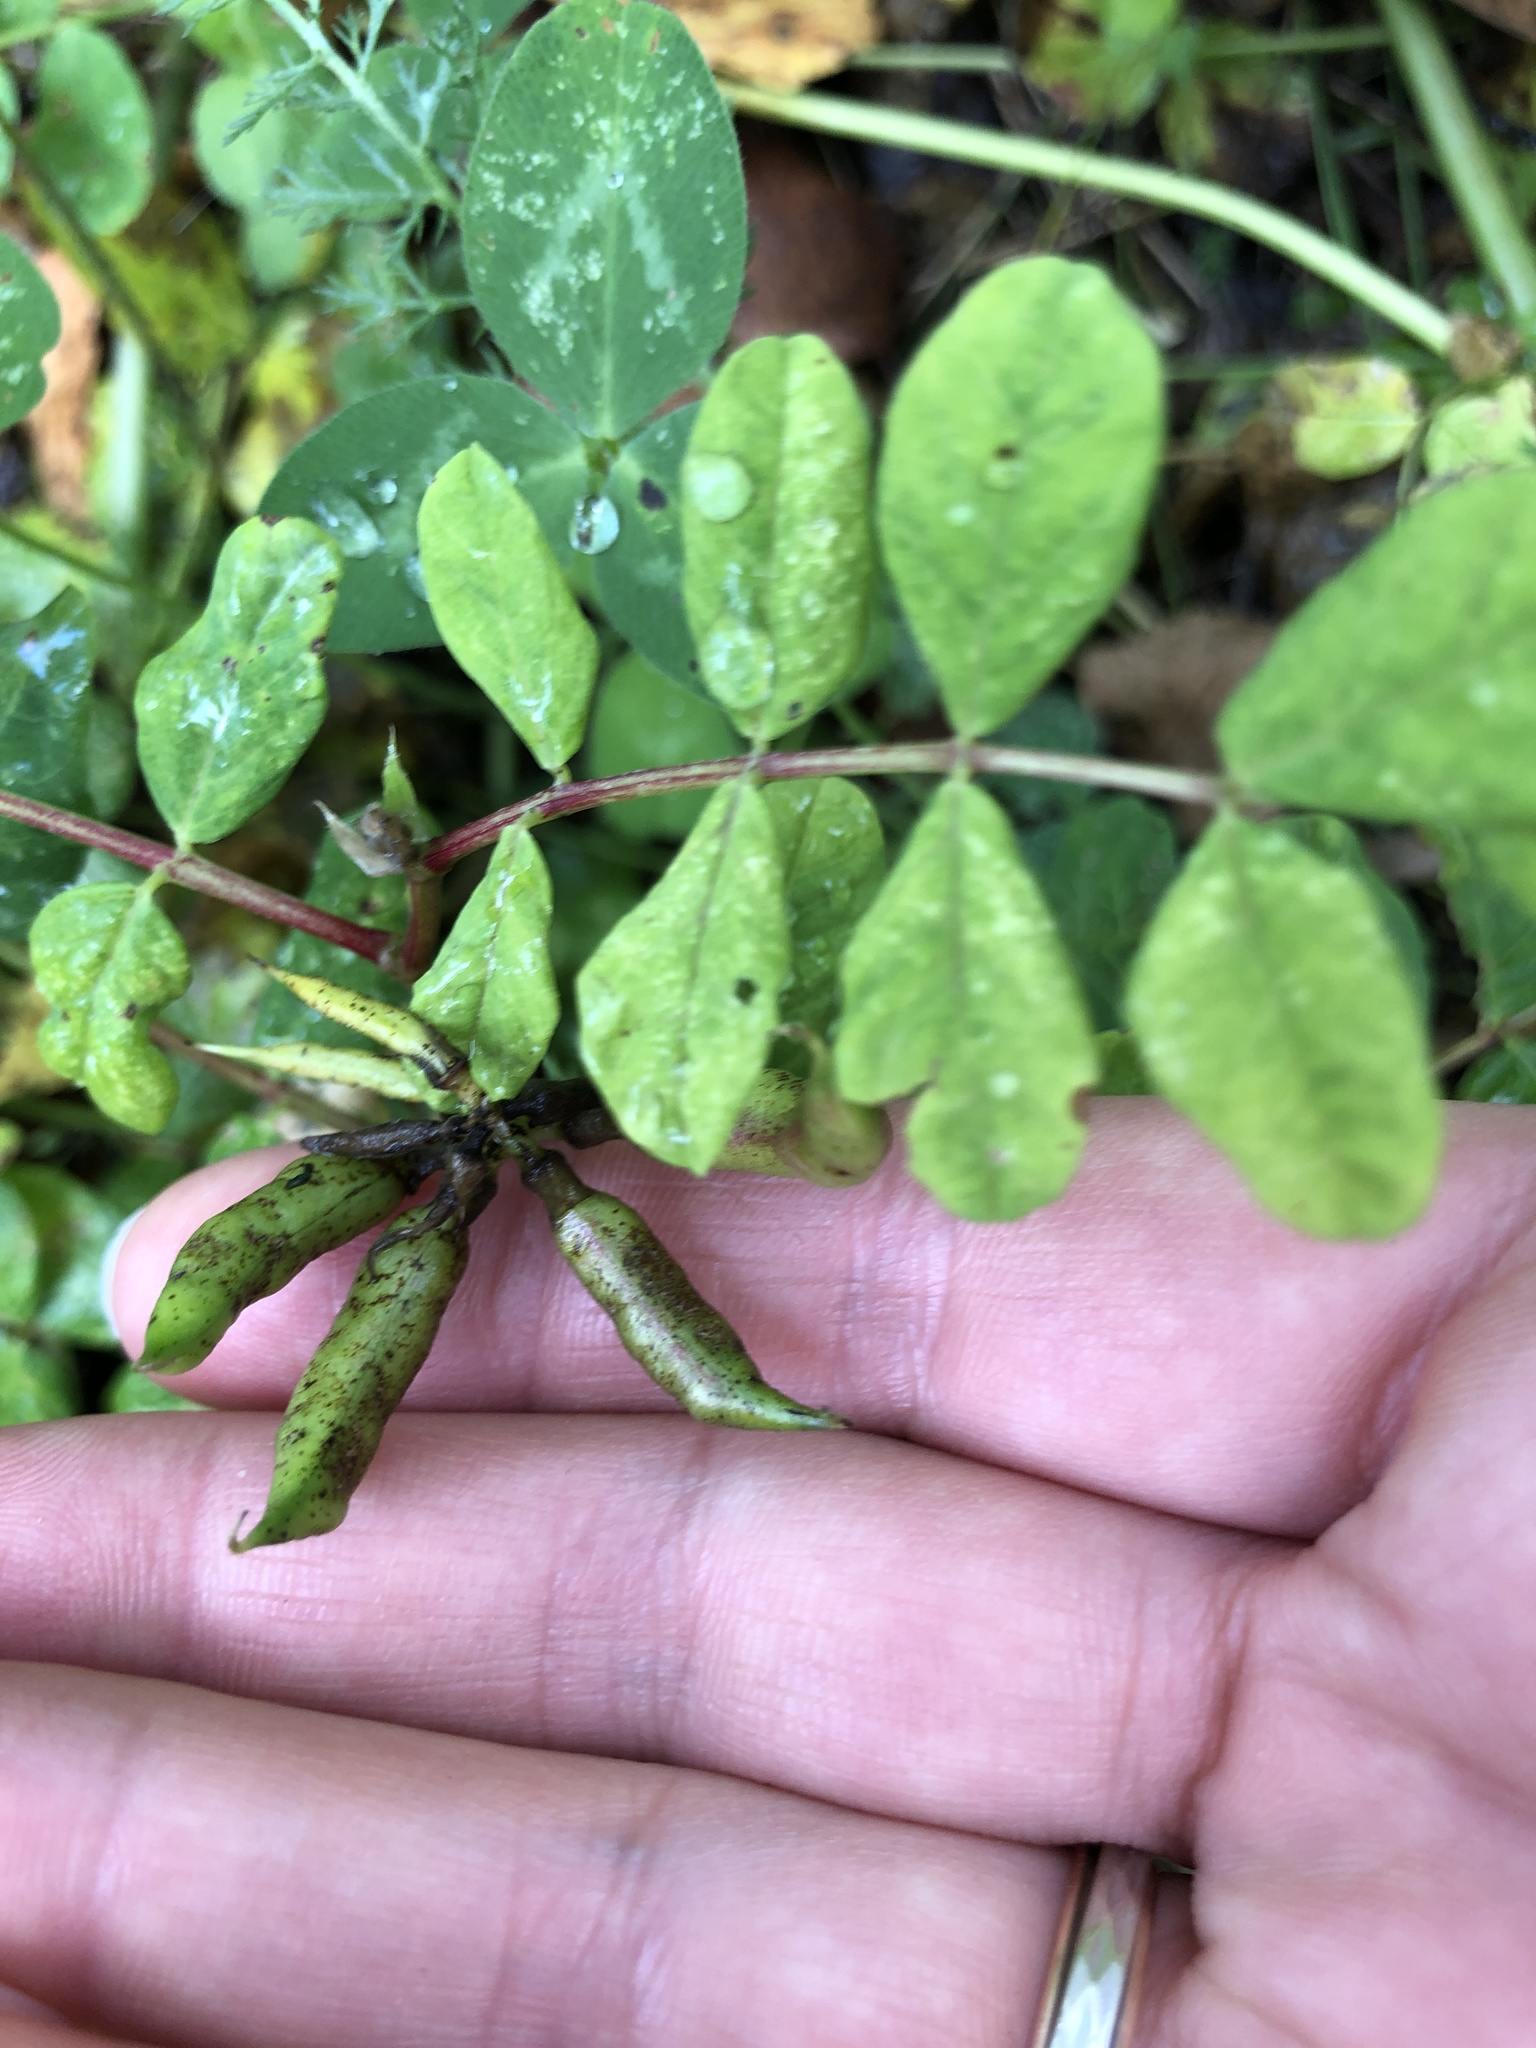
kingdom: Plantae
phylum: Tracheophyta
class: Magnoliopsida
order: Fabales
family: Fabaceae
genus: Astragalus
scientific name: Astragalus glycyphyllos
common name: Wild liquorice
